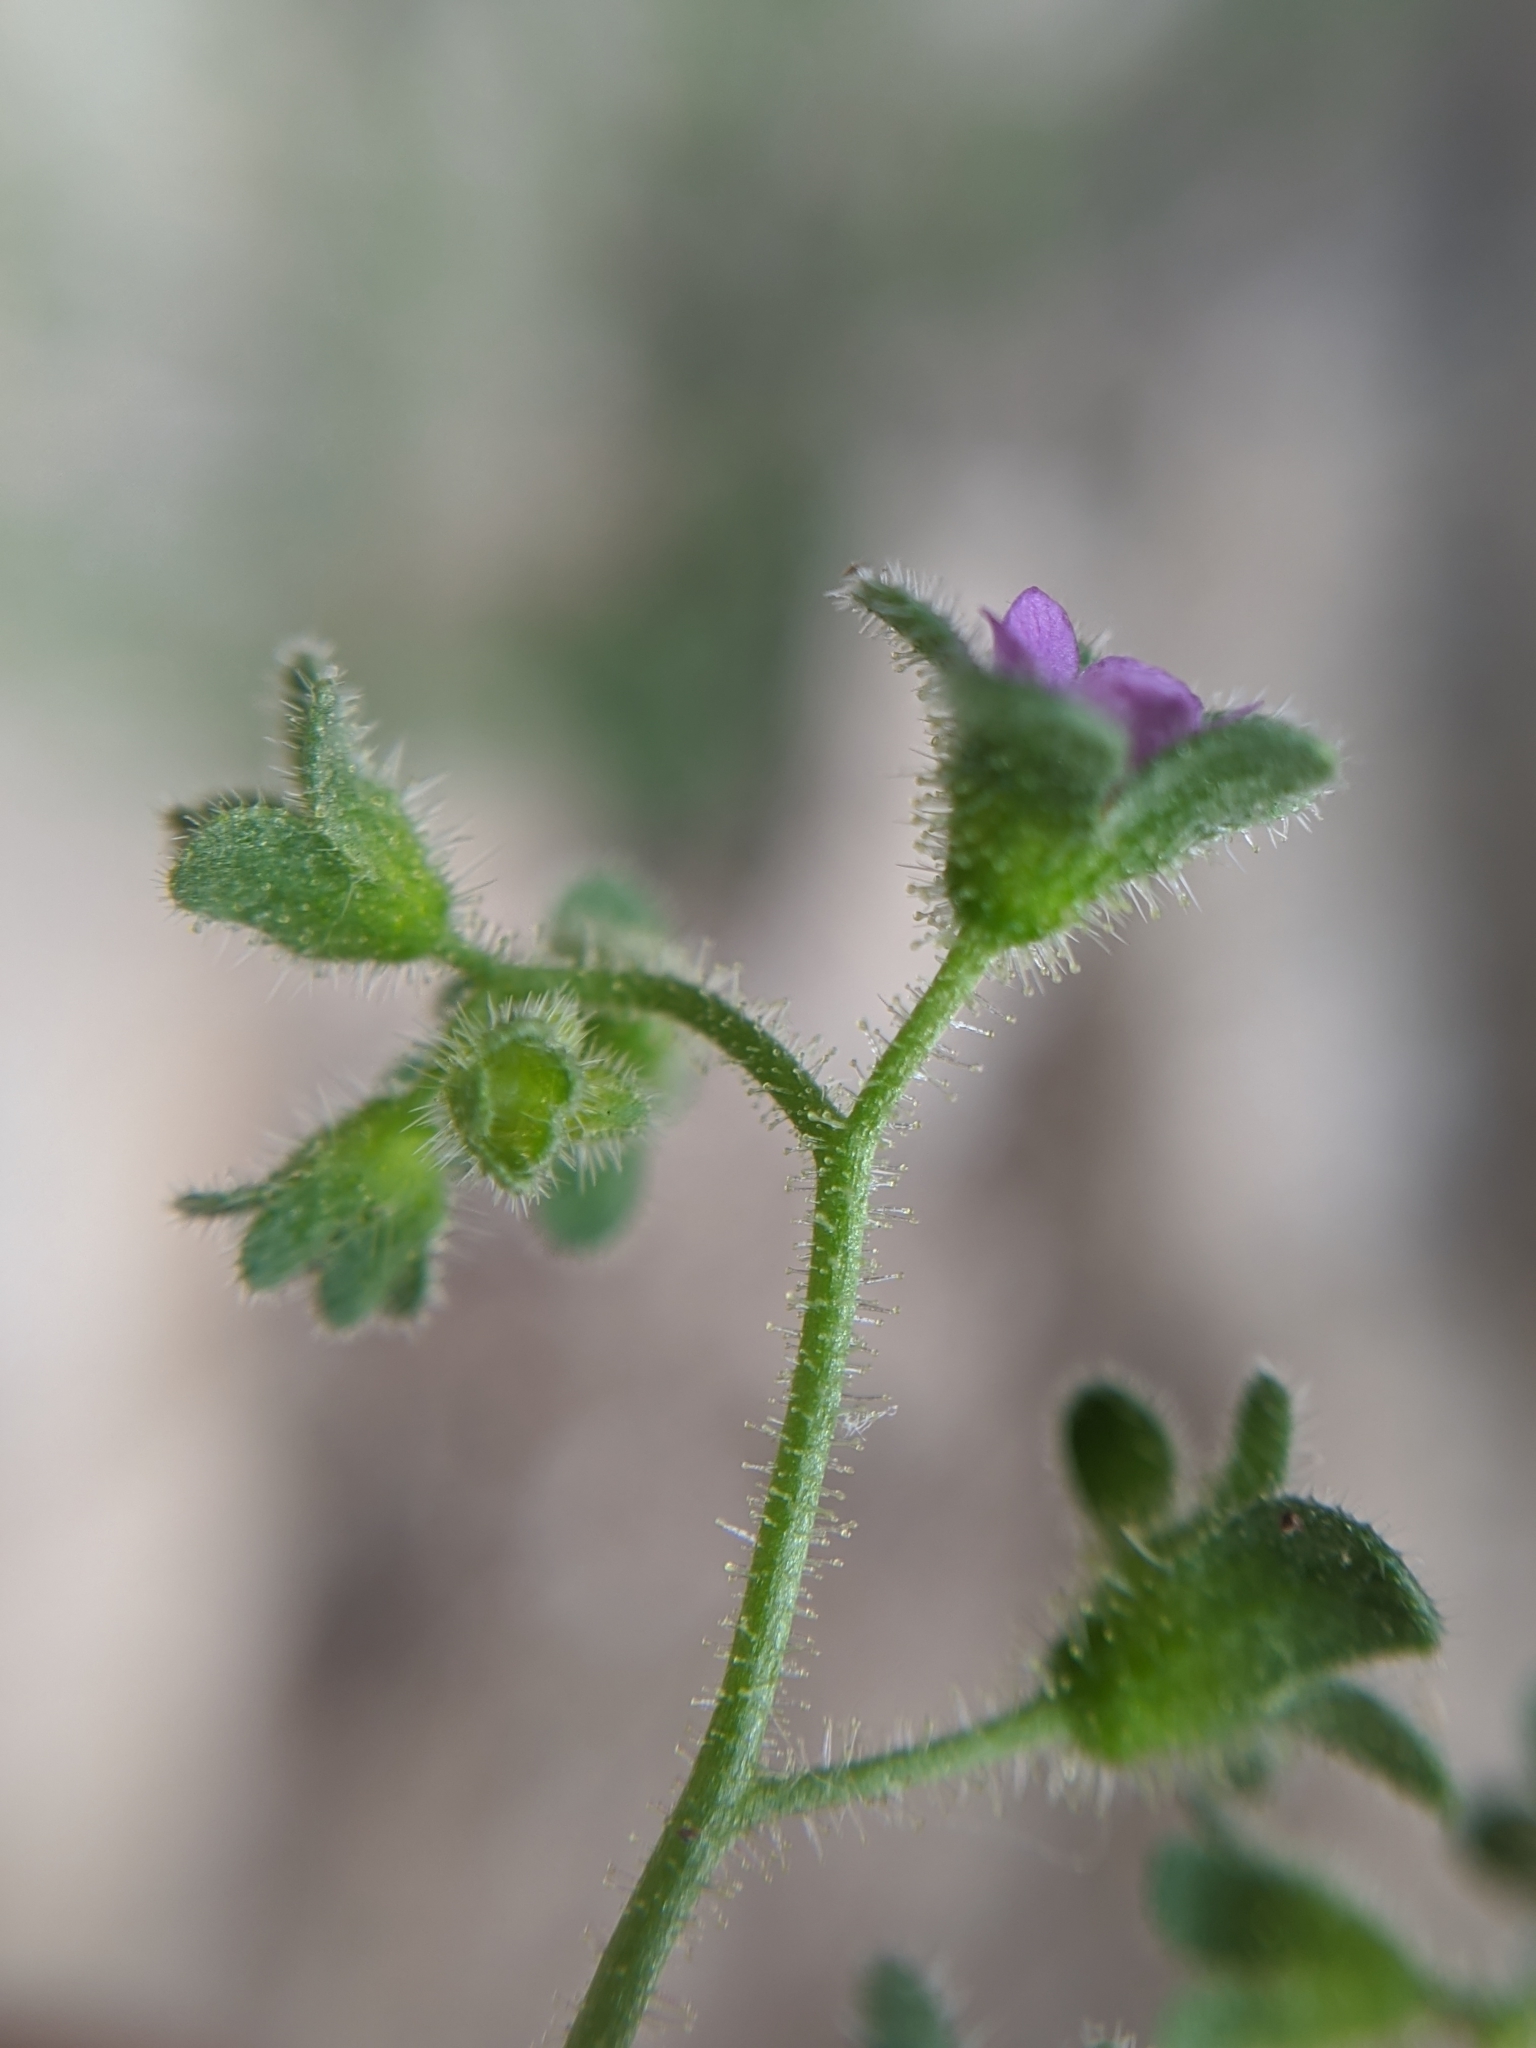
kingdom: Plantae
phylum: Tracheophyta
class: Magnoliopsida
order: Boraginales
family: Hydrophyllaceae
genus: Eucrypta
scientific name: Eucrypta micrantha
